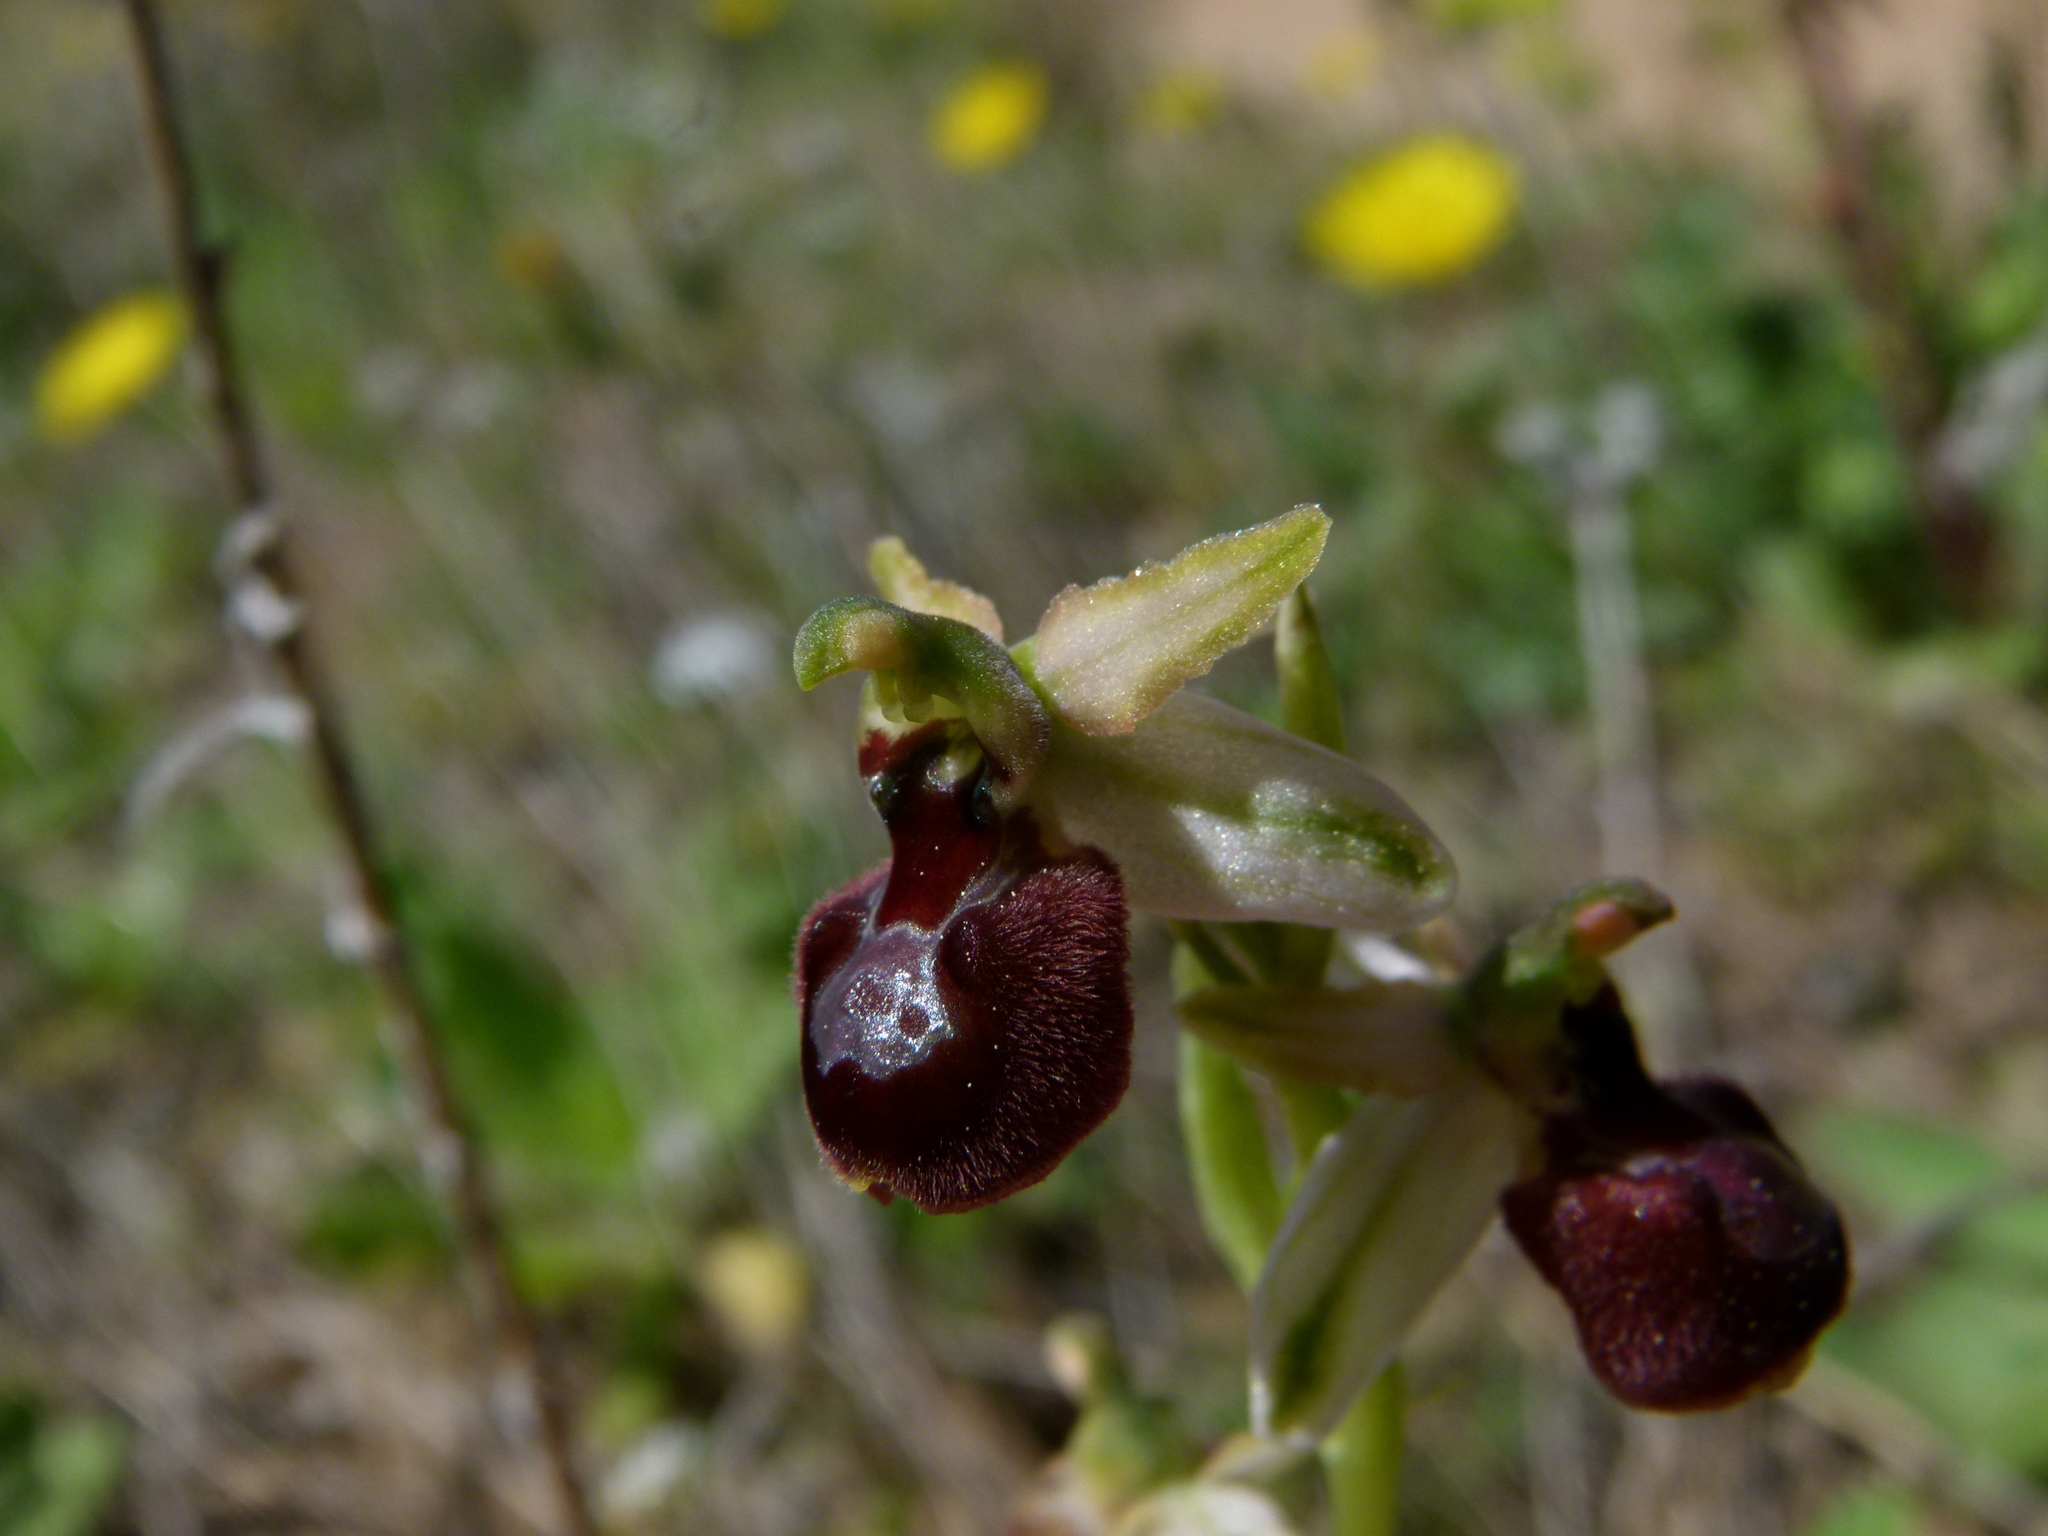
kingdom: Plantae
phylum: Tracheophyta
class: Liliopsida
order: Asparagales
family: Orchidaceae
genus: Ophrys
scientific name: Ophrys sphegodes
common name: Early spider-orchid
